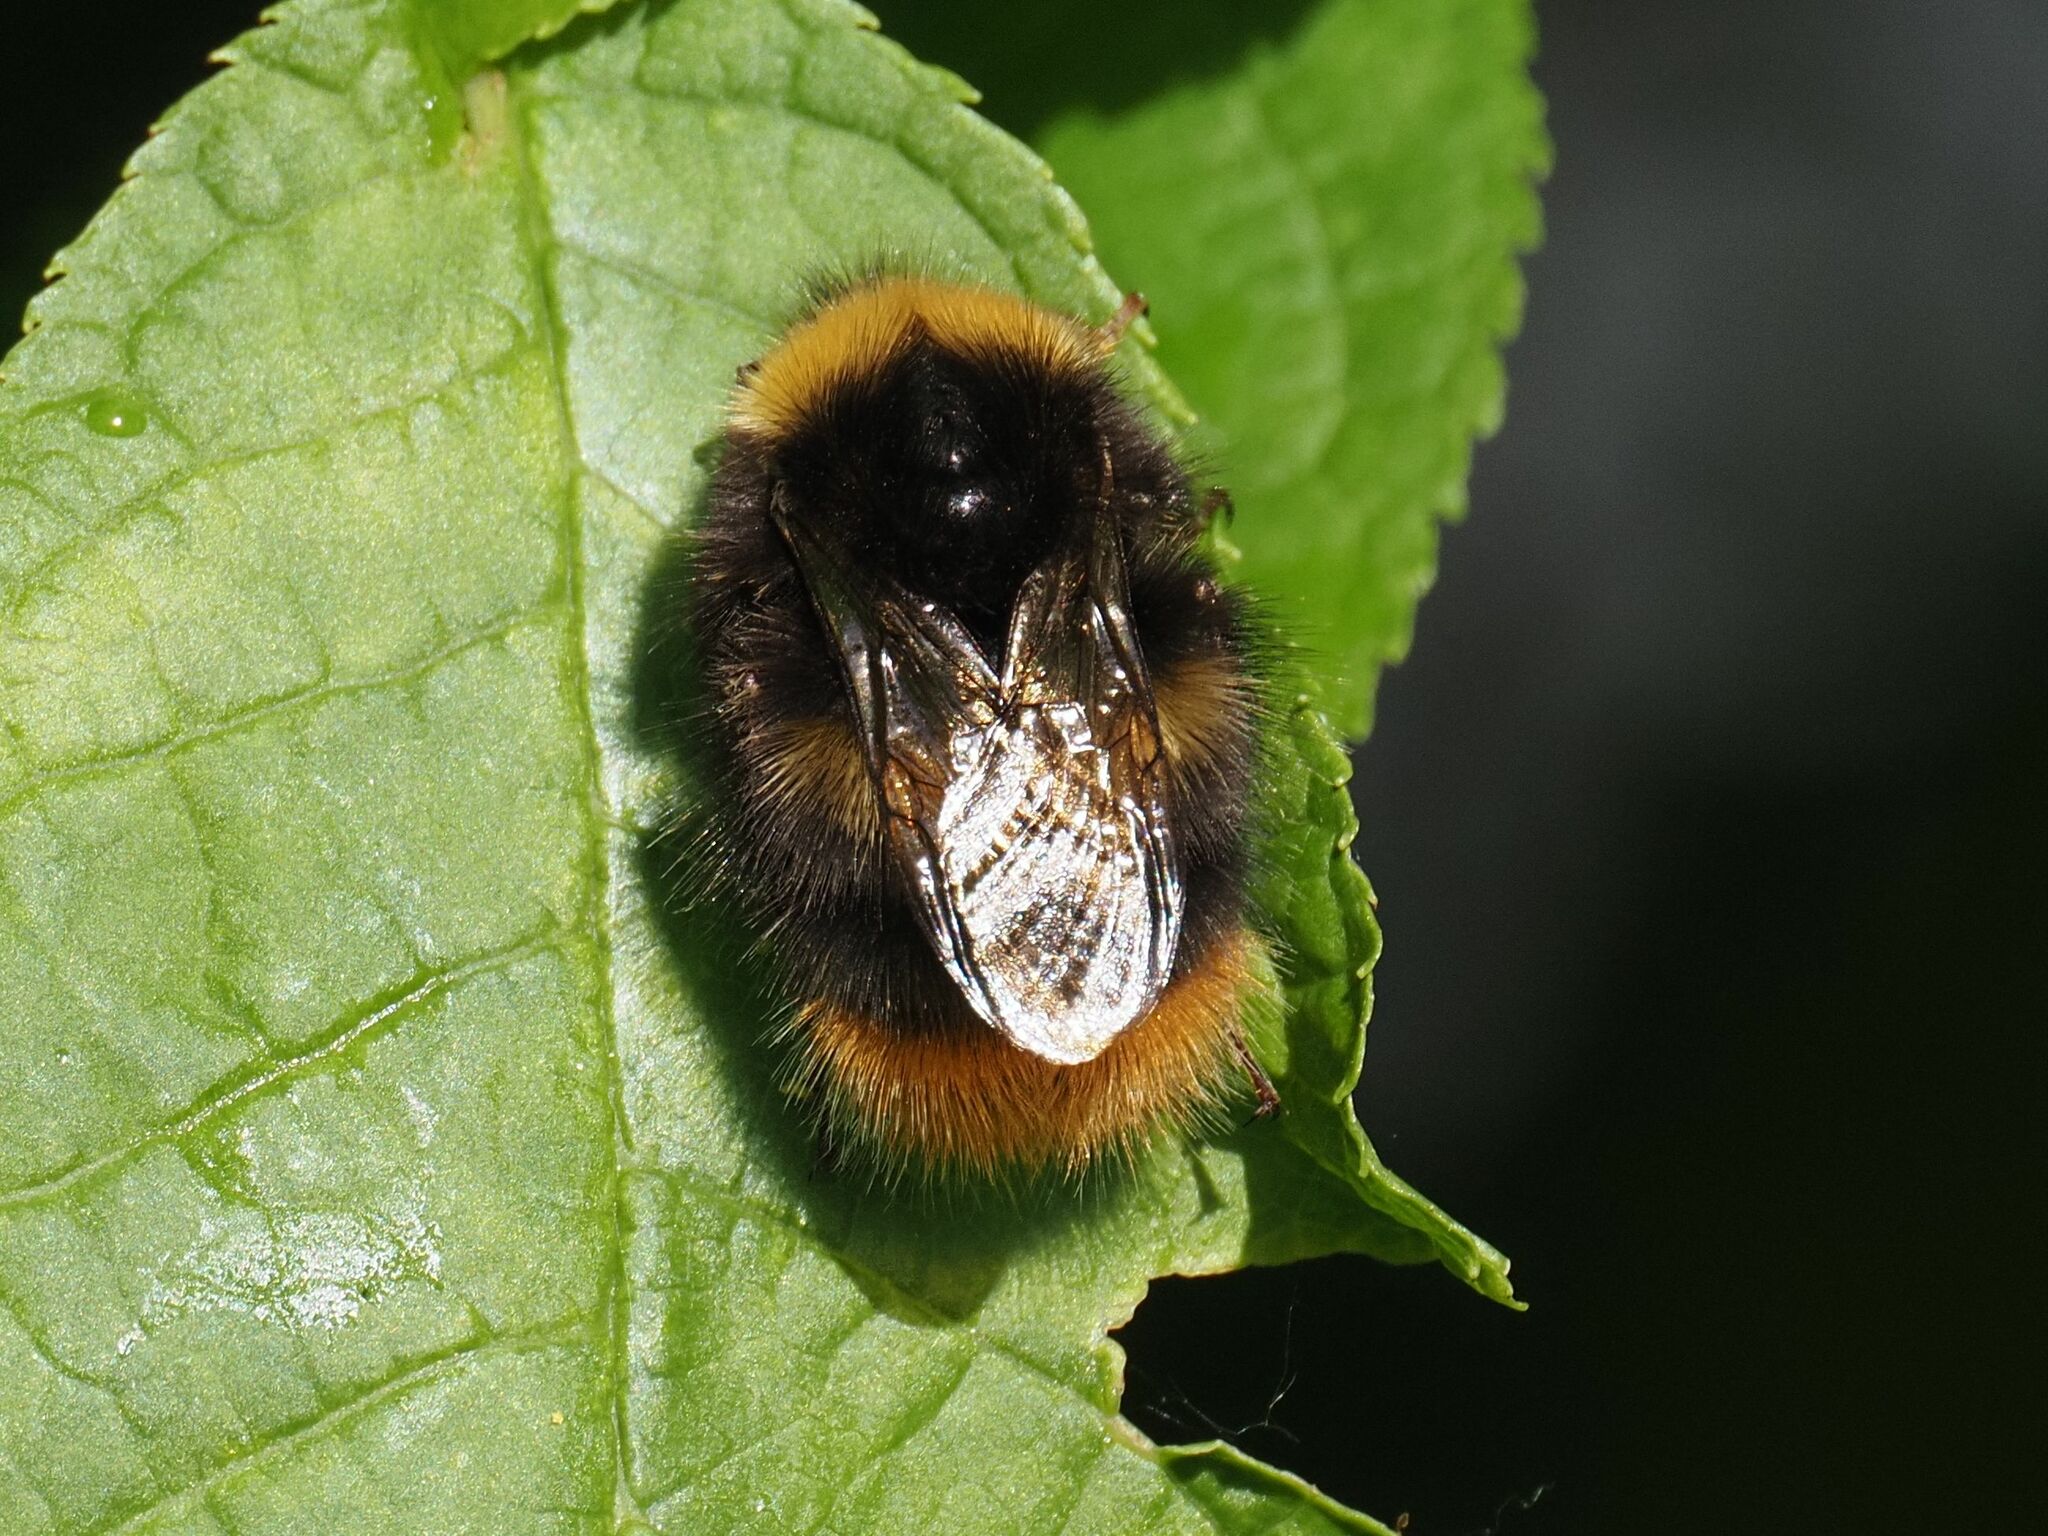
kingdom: Animalia
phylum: Arthropoda
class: Insecta
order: Hymenoptera
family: Apidae
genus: Bombus
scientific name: Bombus pratorum
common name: Early humble-bee
